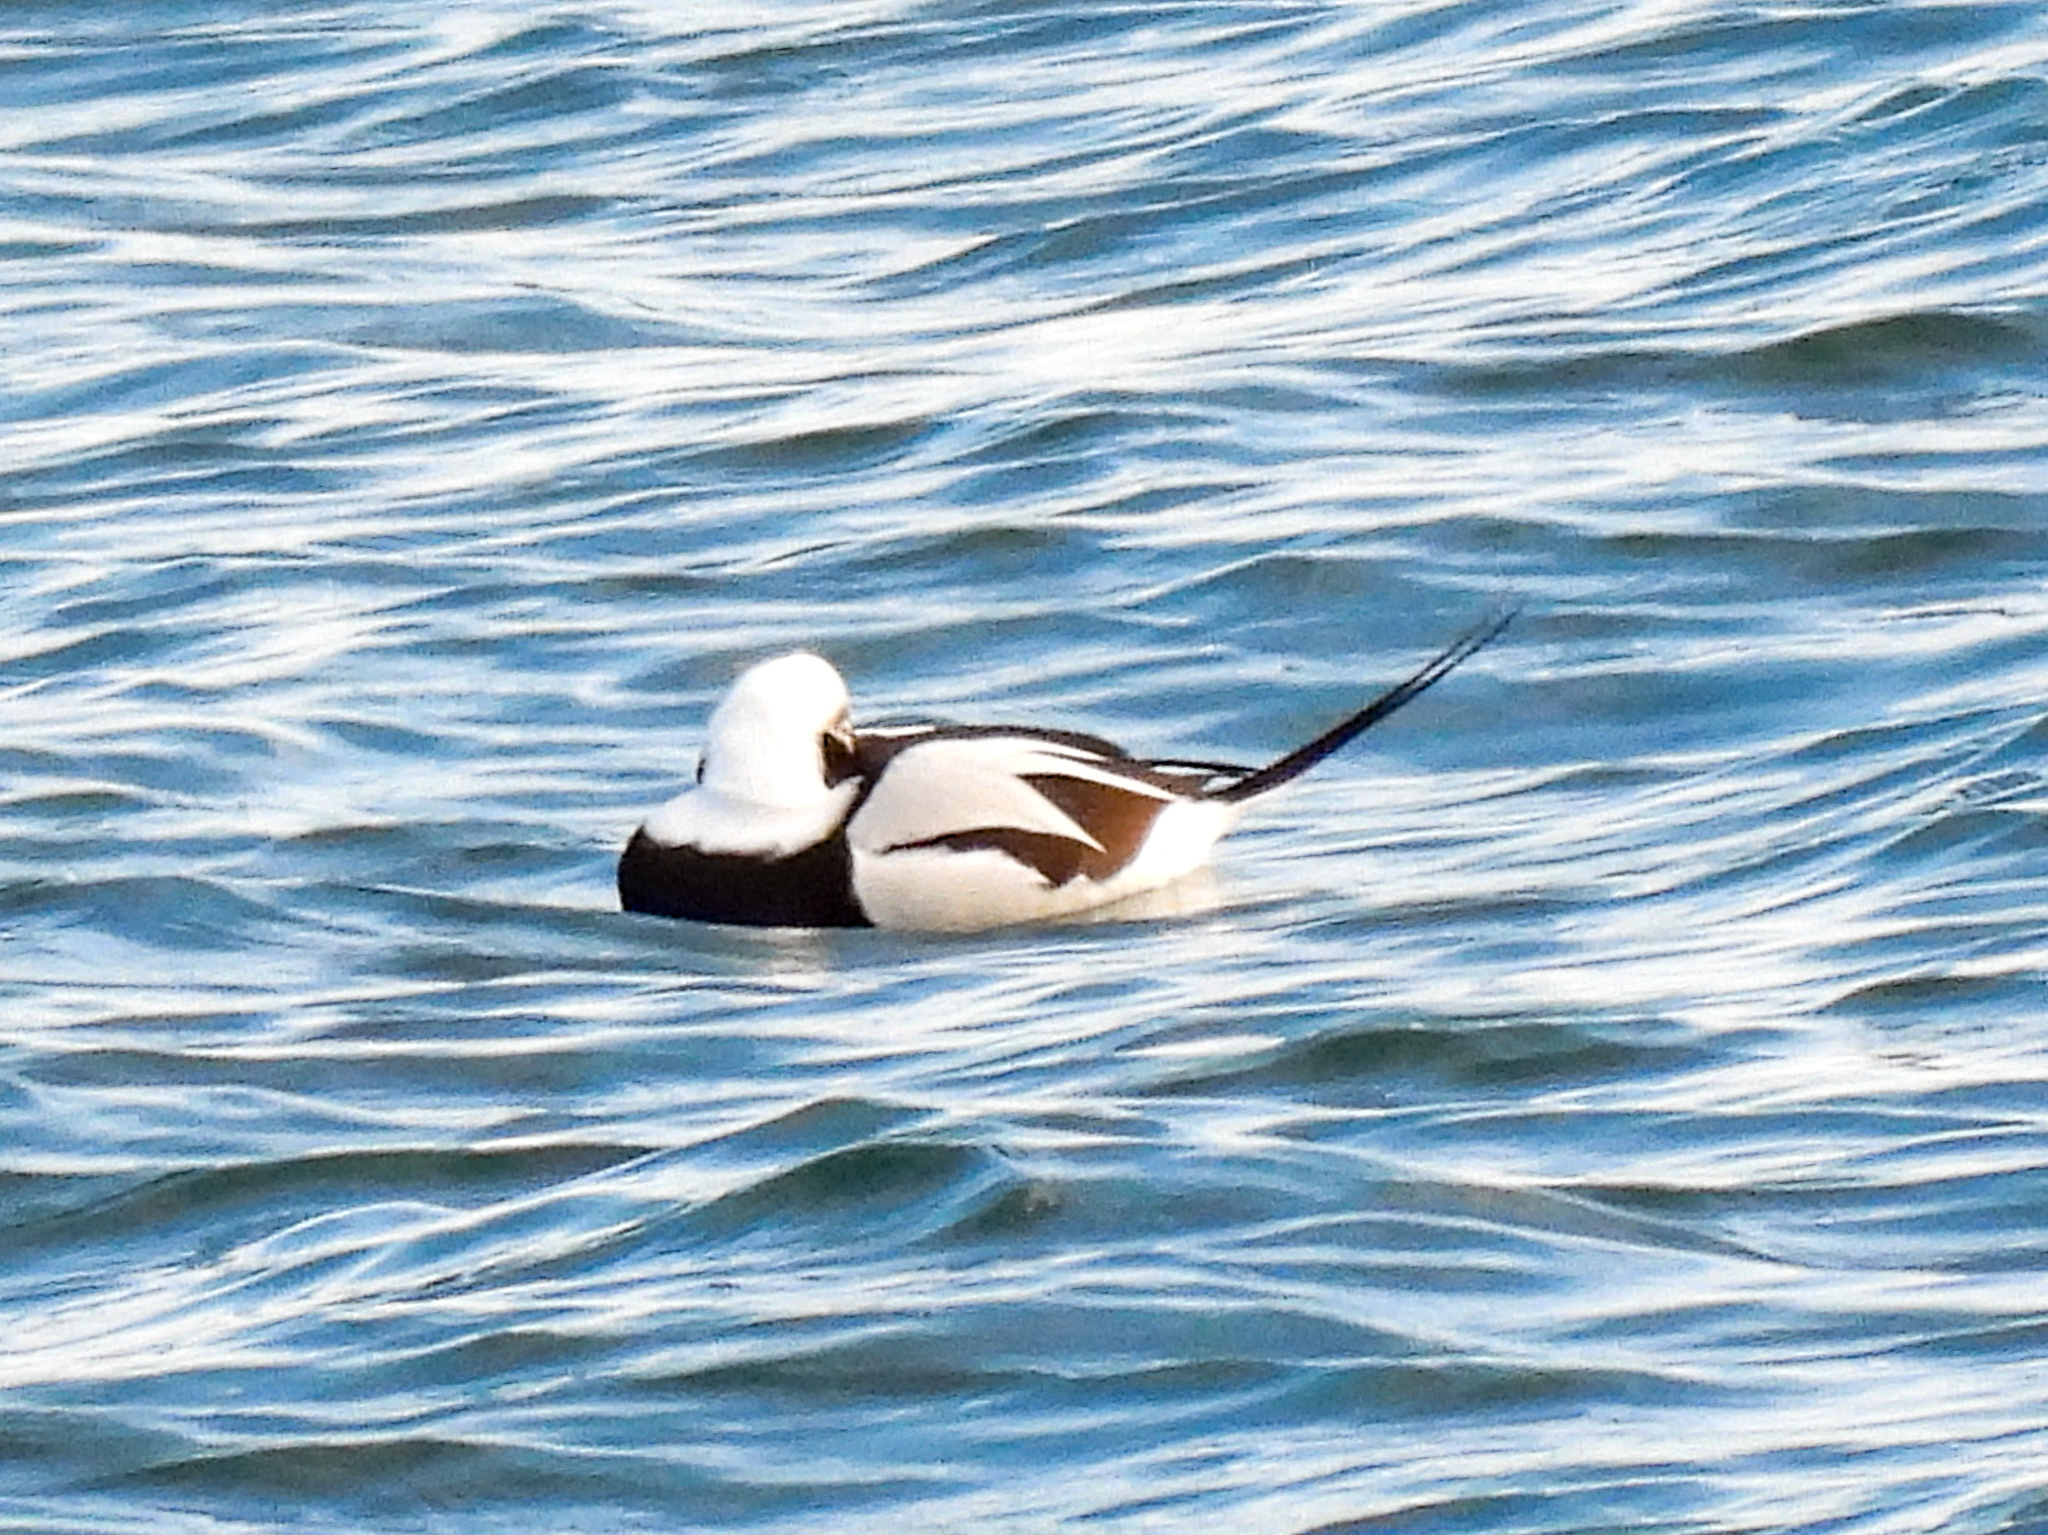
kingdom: Animalia
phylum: Chordata
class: Aves
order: Anseriformes
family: Anatidae
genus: Clangula
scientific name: Clangula hyemalis
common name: Long-tailed duck
